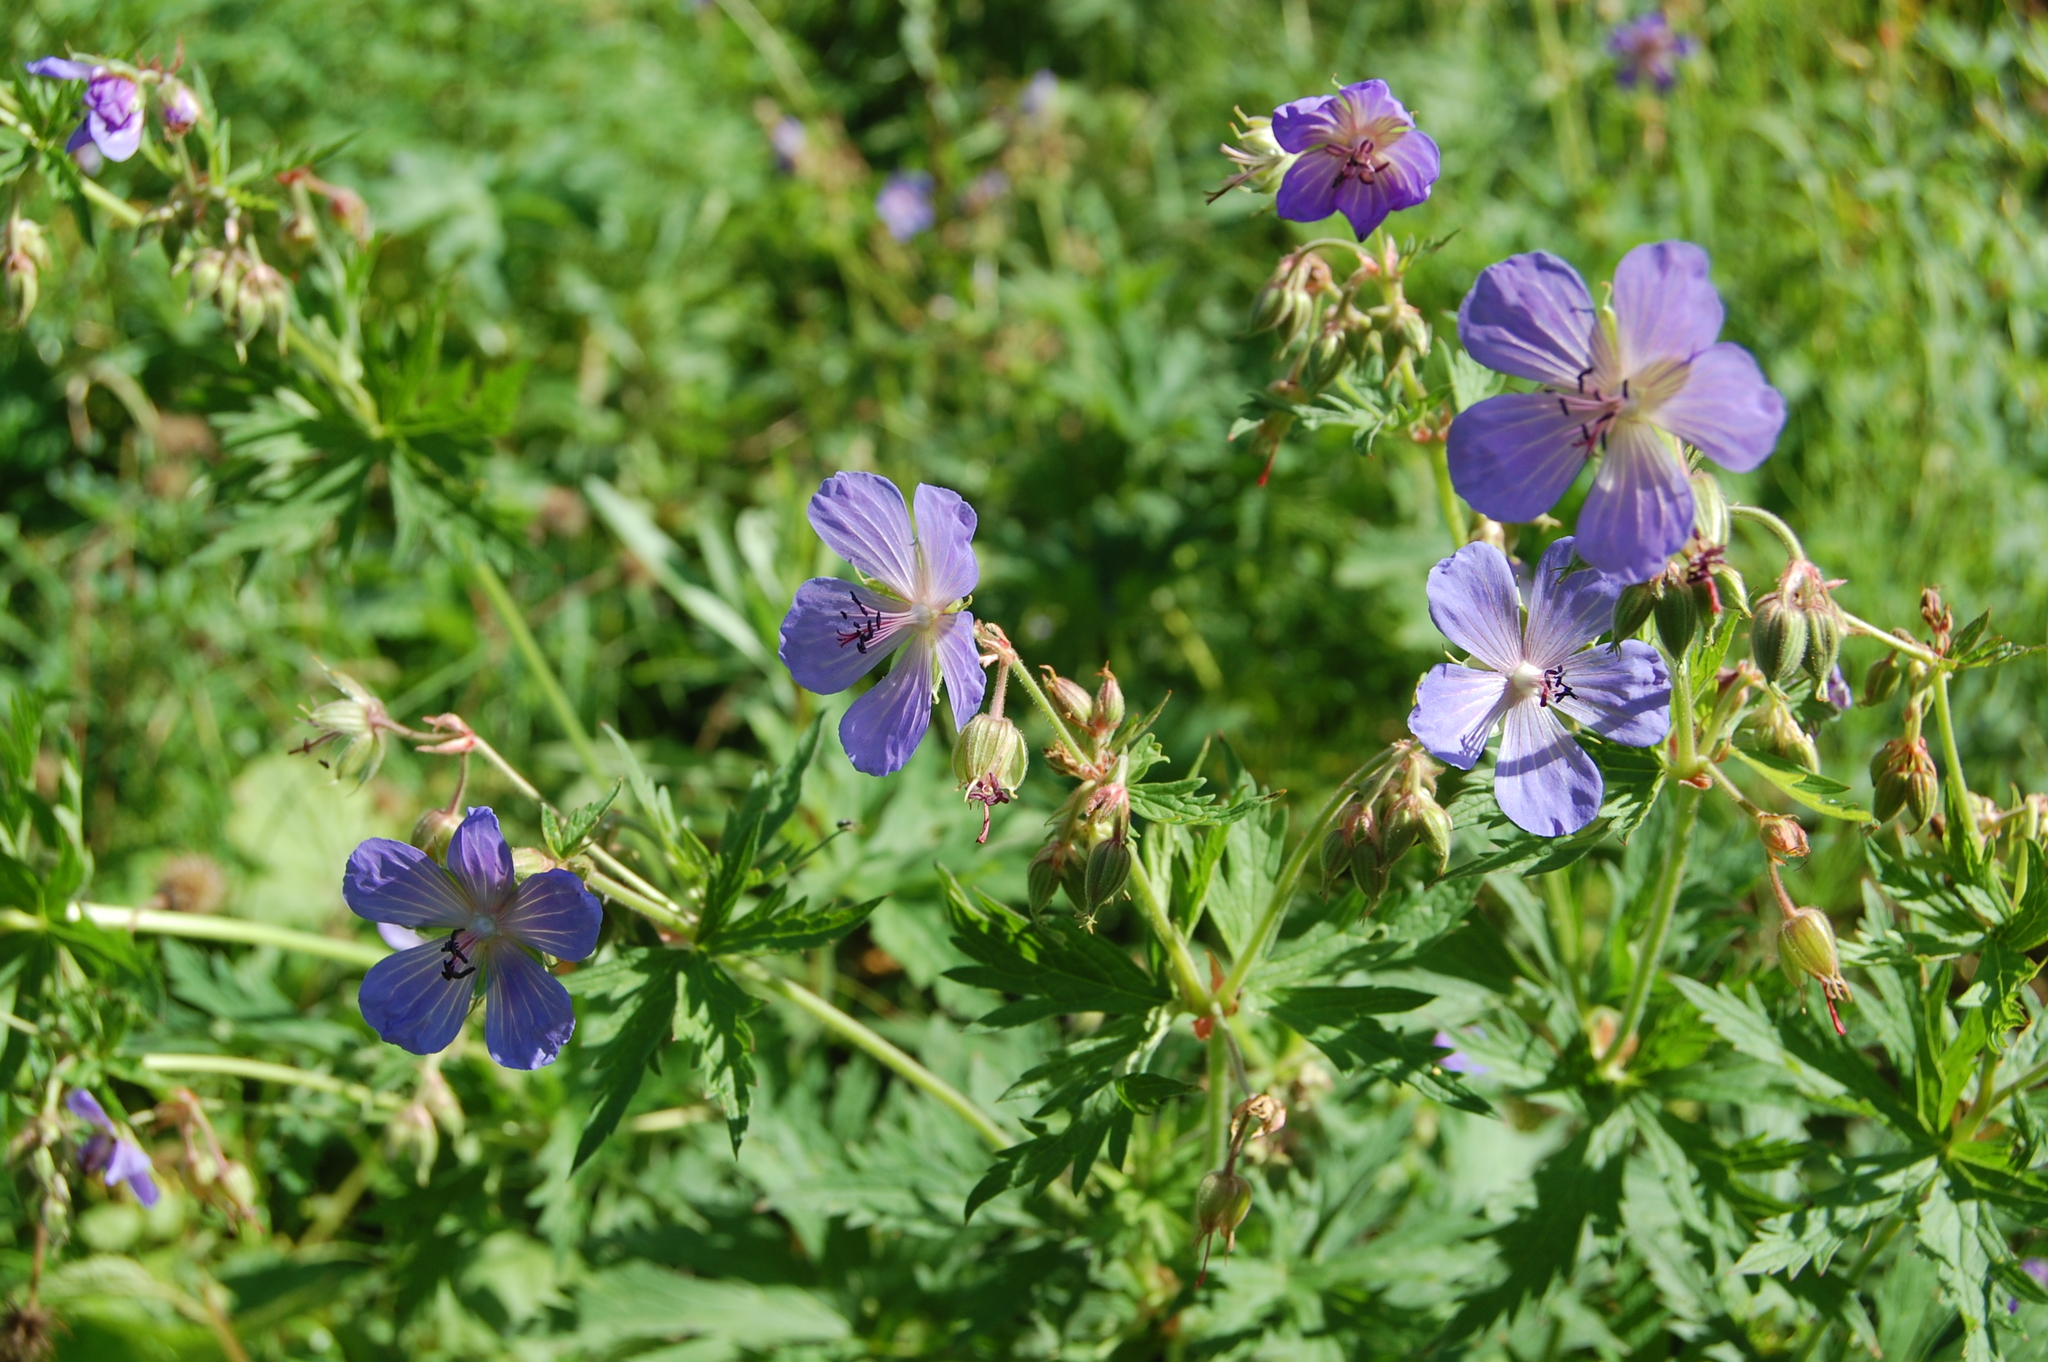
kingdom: Plantae
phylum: Tracheophyta
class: Magnoliopsida
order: Geraniales
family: Geraniaceae
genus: Geranium
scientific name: Geranium pratense
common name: Meadow crane's-bill
